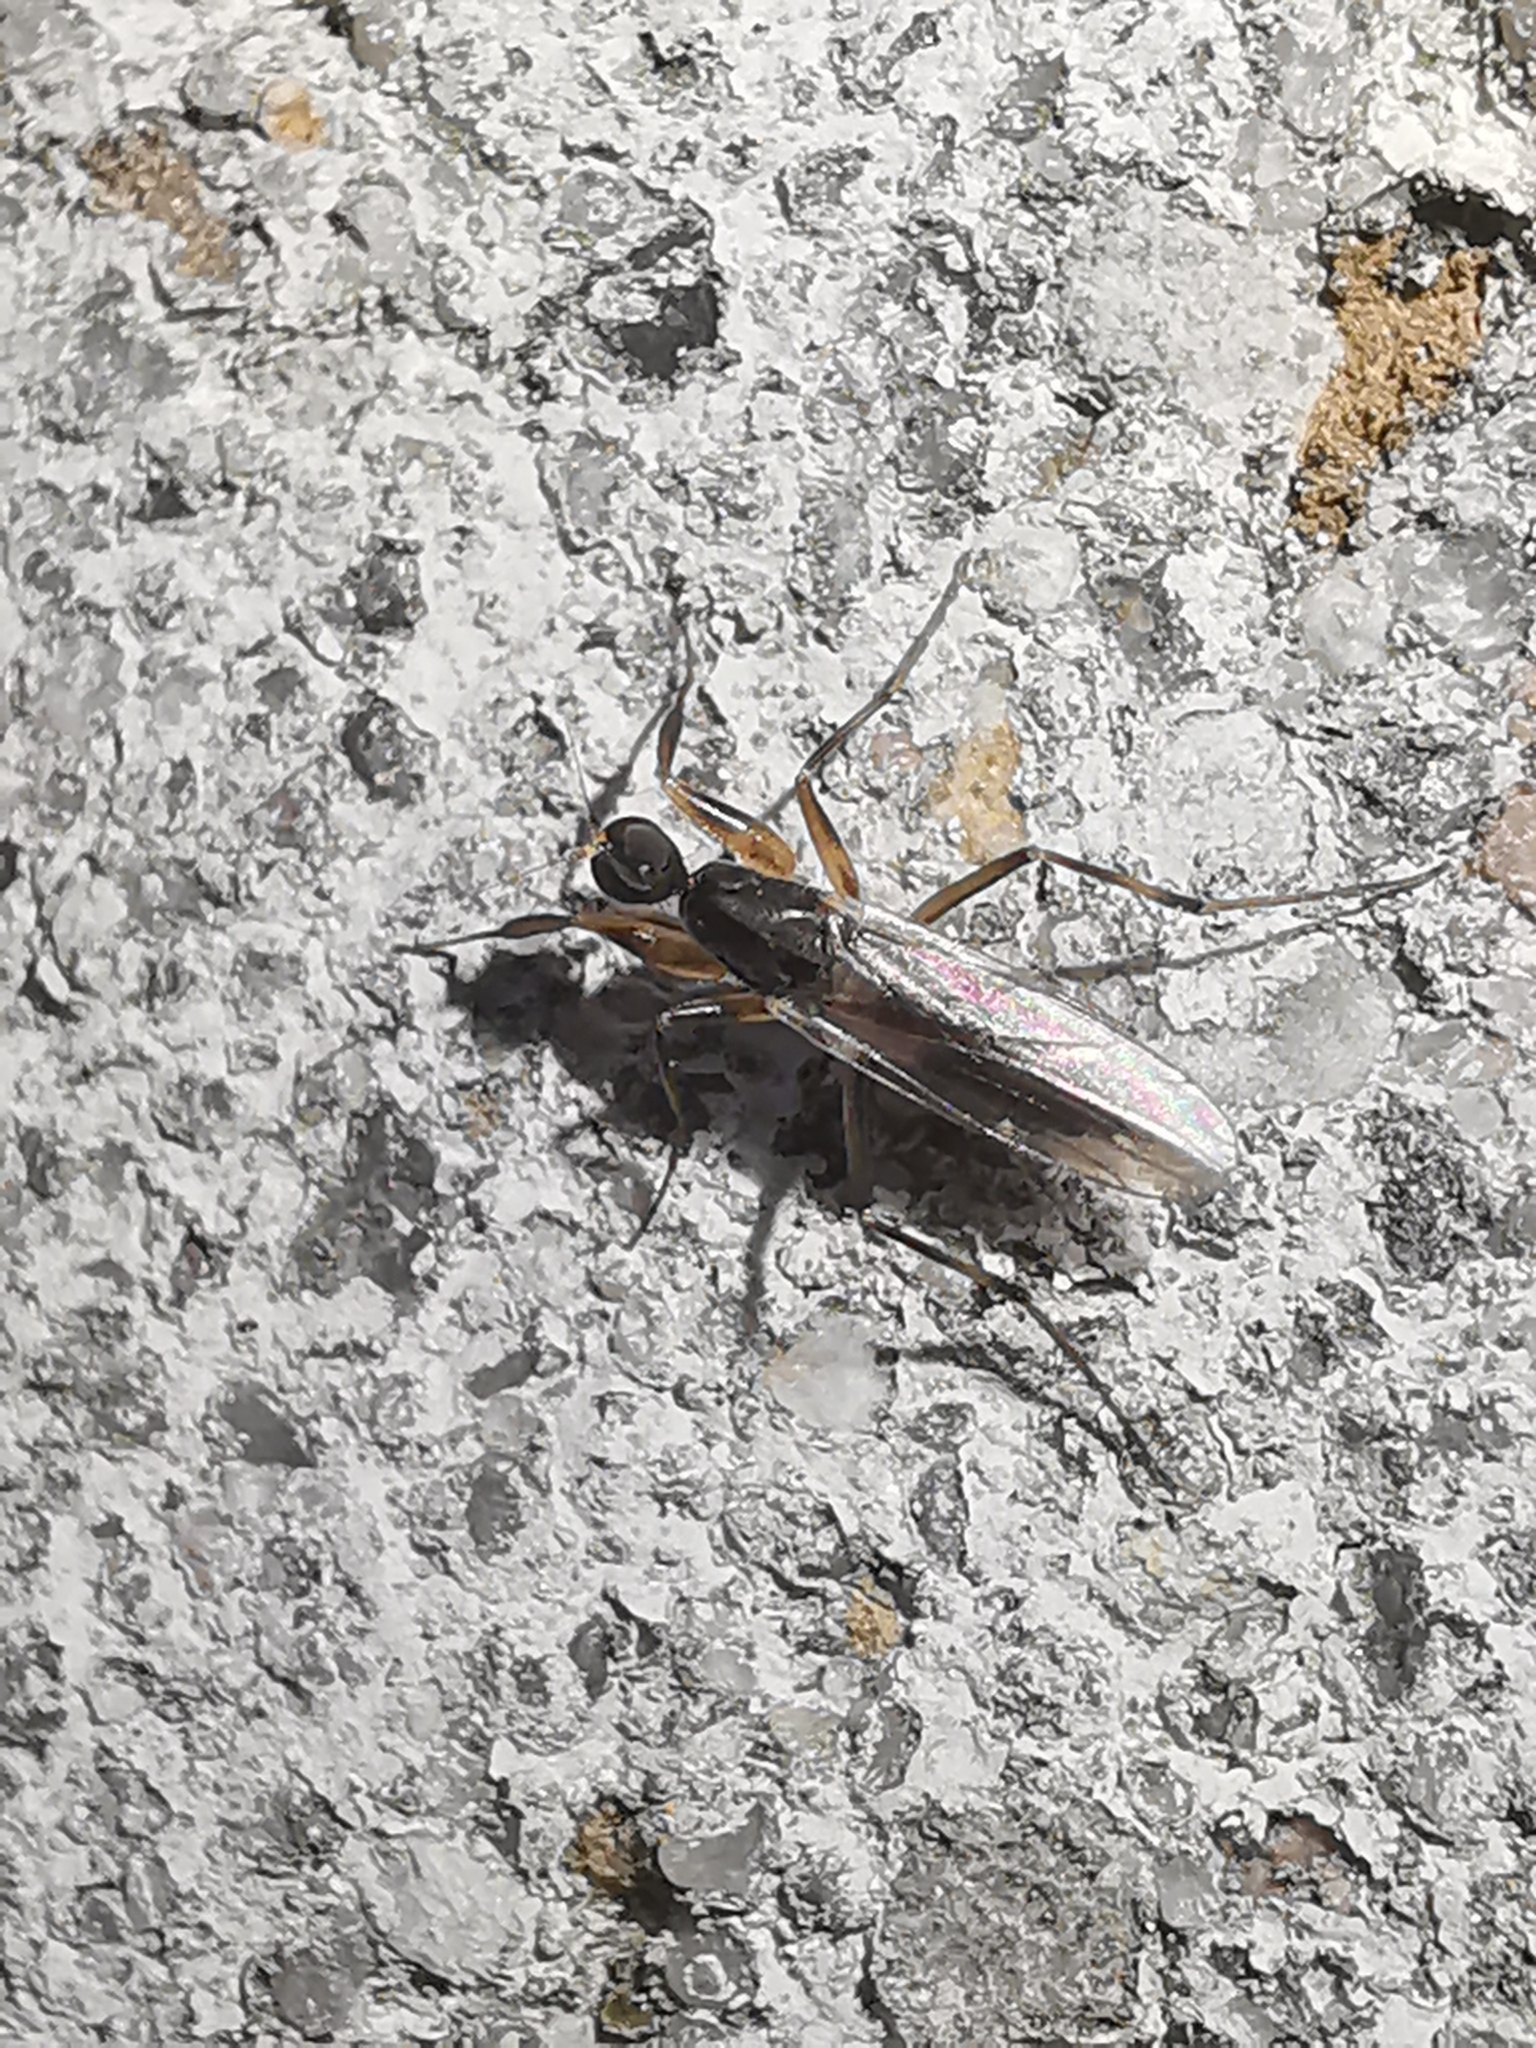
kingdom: Animalia
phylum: Arthropoda
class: Insecta
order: Diptera
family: Hybotidae
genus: Tachypeza
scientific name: Tachypeza nubila
